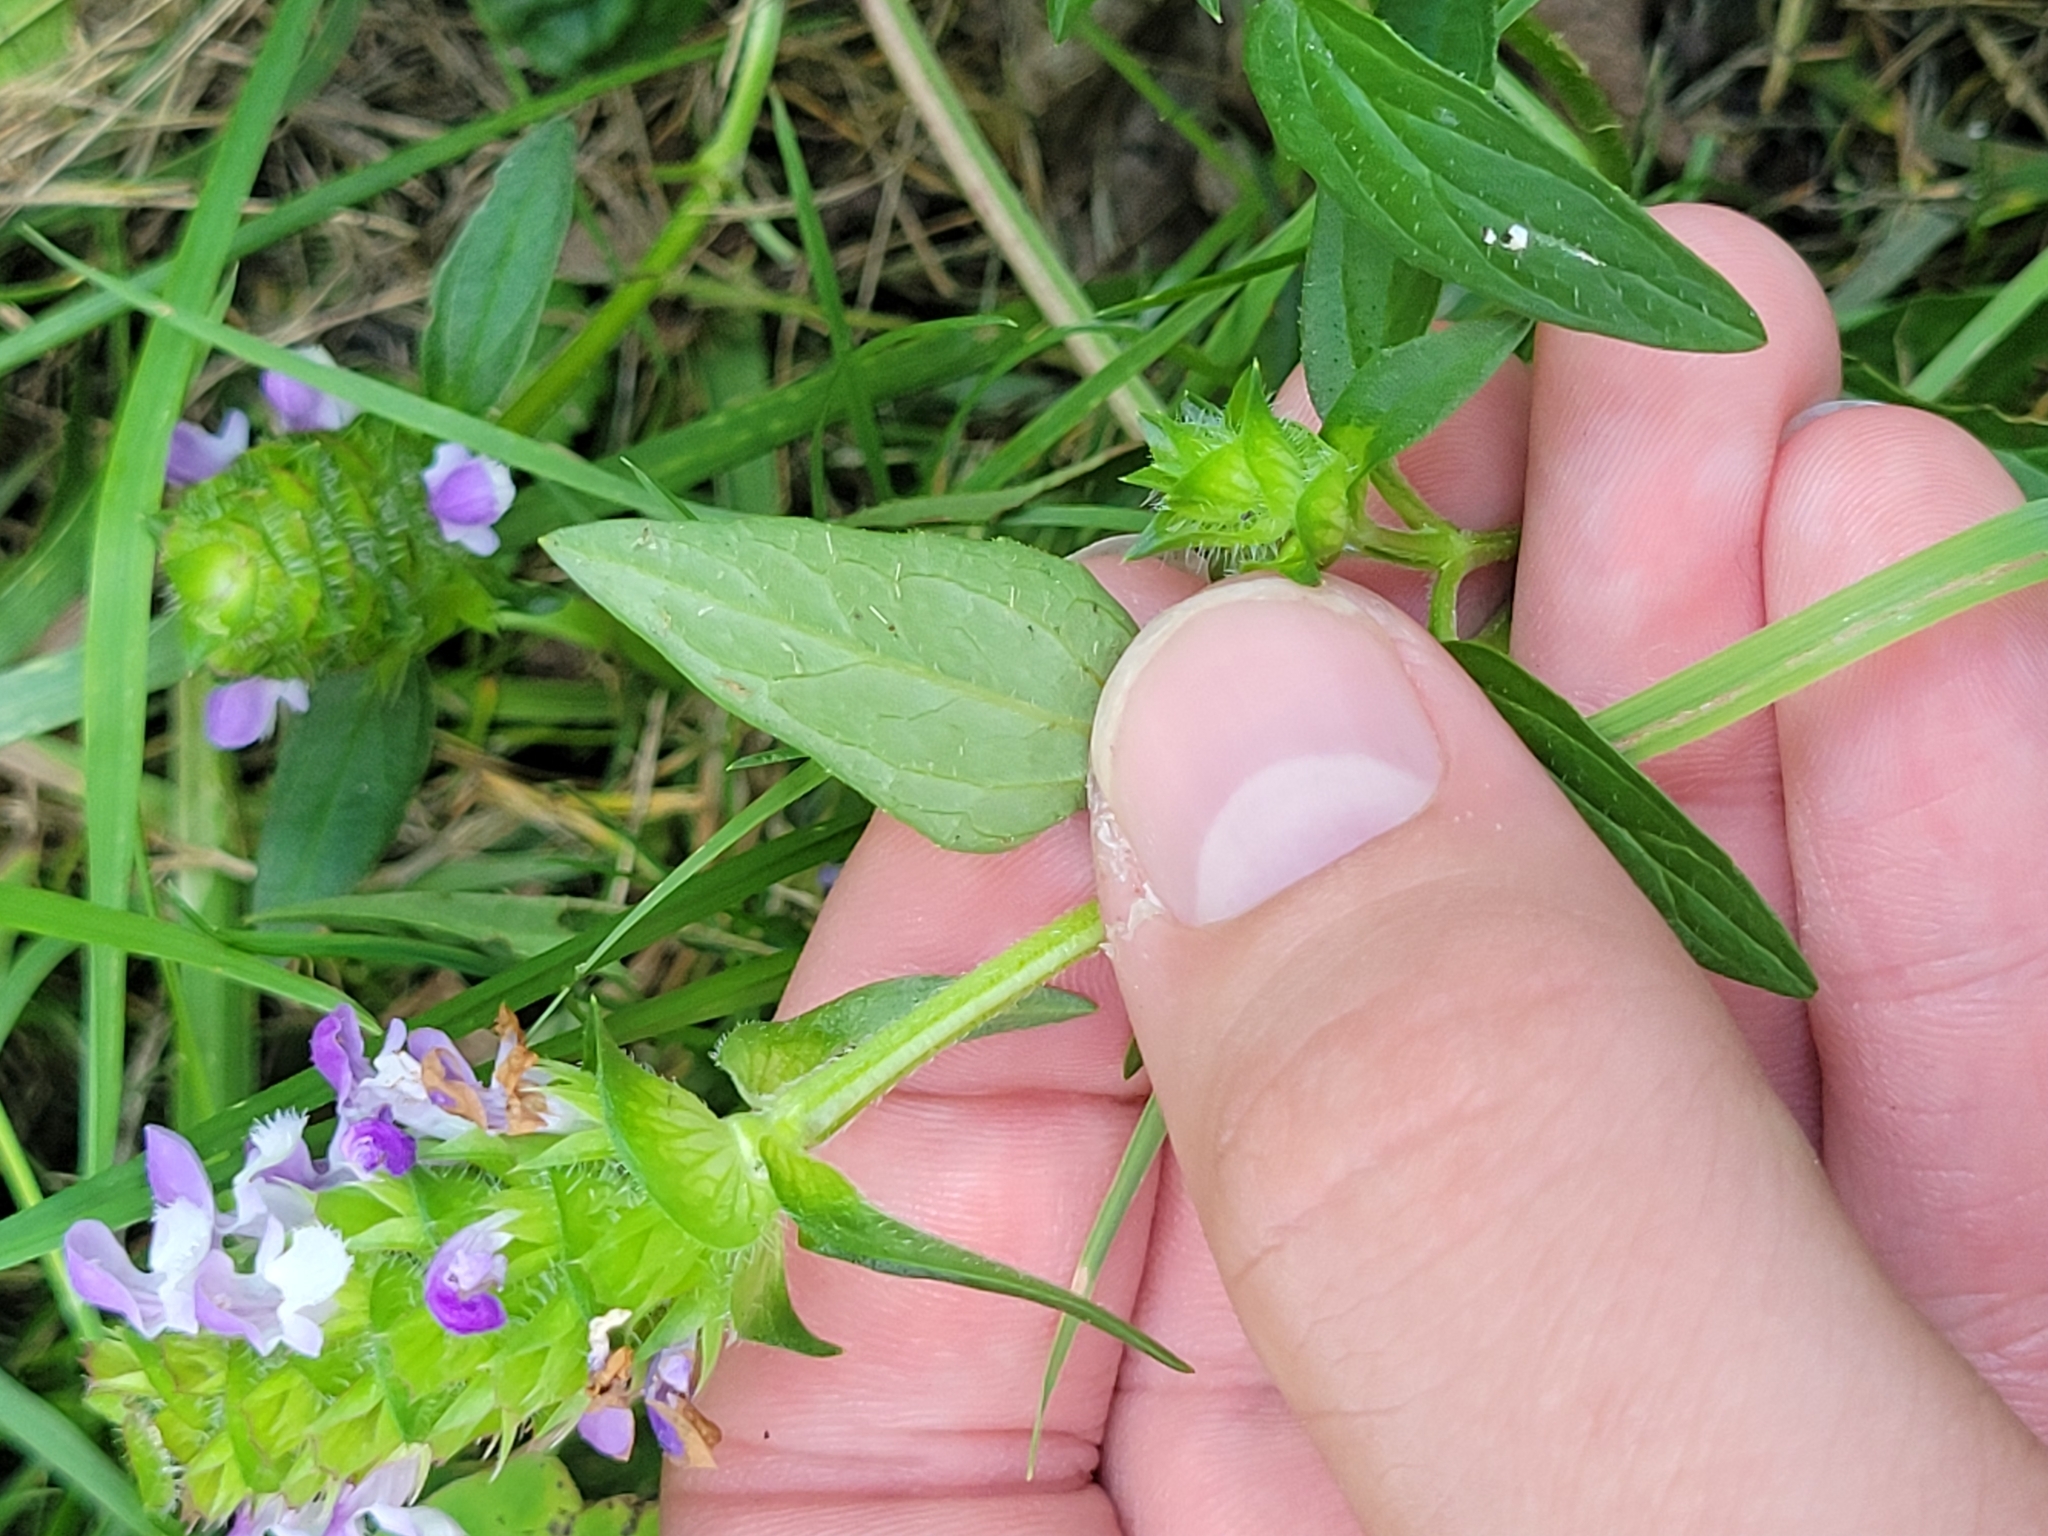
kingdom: Plantae
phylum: Tracheophyta
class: Magnoliopsida
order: Lamiales
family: Lamiaceae
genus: Prunella
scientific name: Prunella vulgaris
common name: Heal-all
